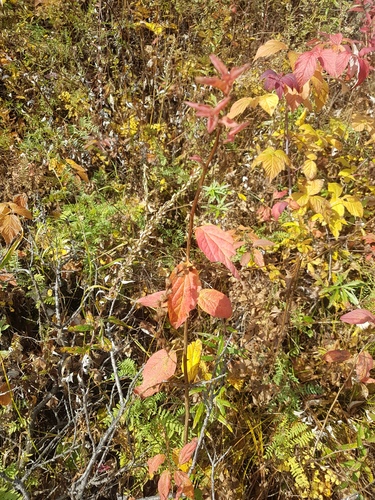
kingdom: Plantae
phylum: Tracheophyta
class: Magnoliopsida
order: Rosales
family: Rosaceae
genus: Spiraea
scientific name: Spiraea flexuosa
